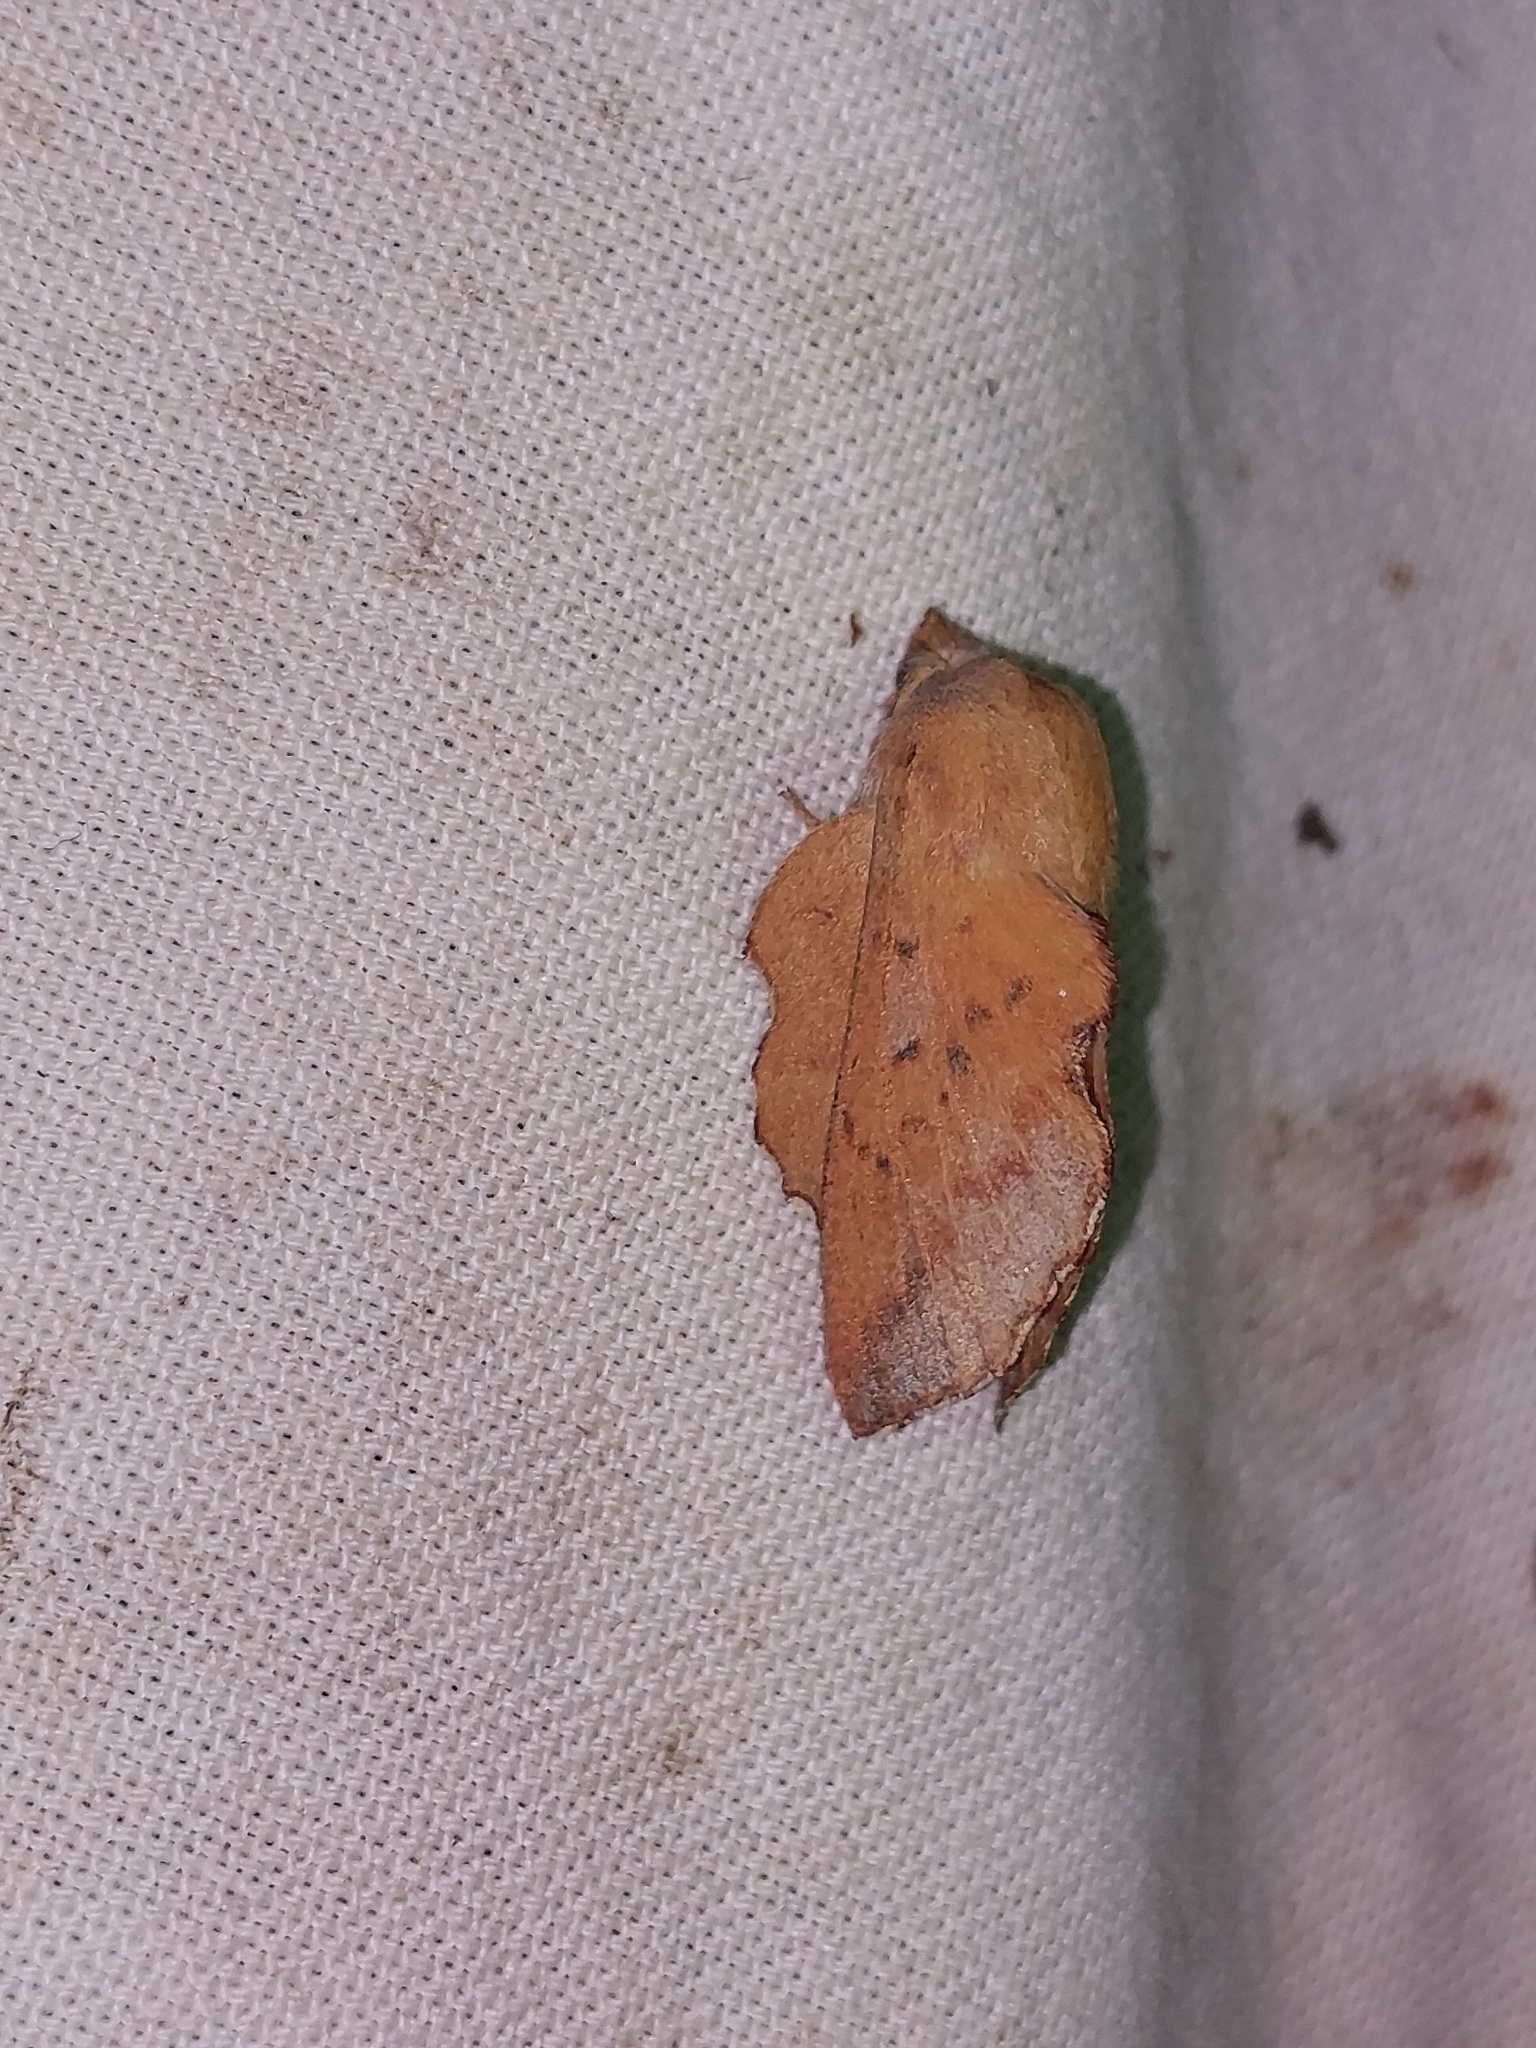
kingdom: Animalia
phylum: Arthropoda
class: Insecta
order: Lepidoptera
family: Lasiocampidae
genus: Phyllodesma
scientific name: Phyllodesma tremulifolia
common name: Aspen lappet
